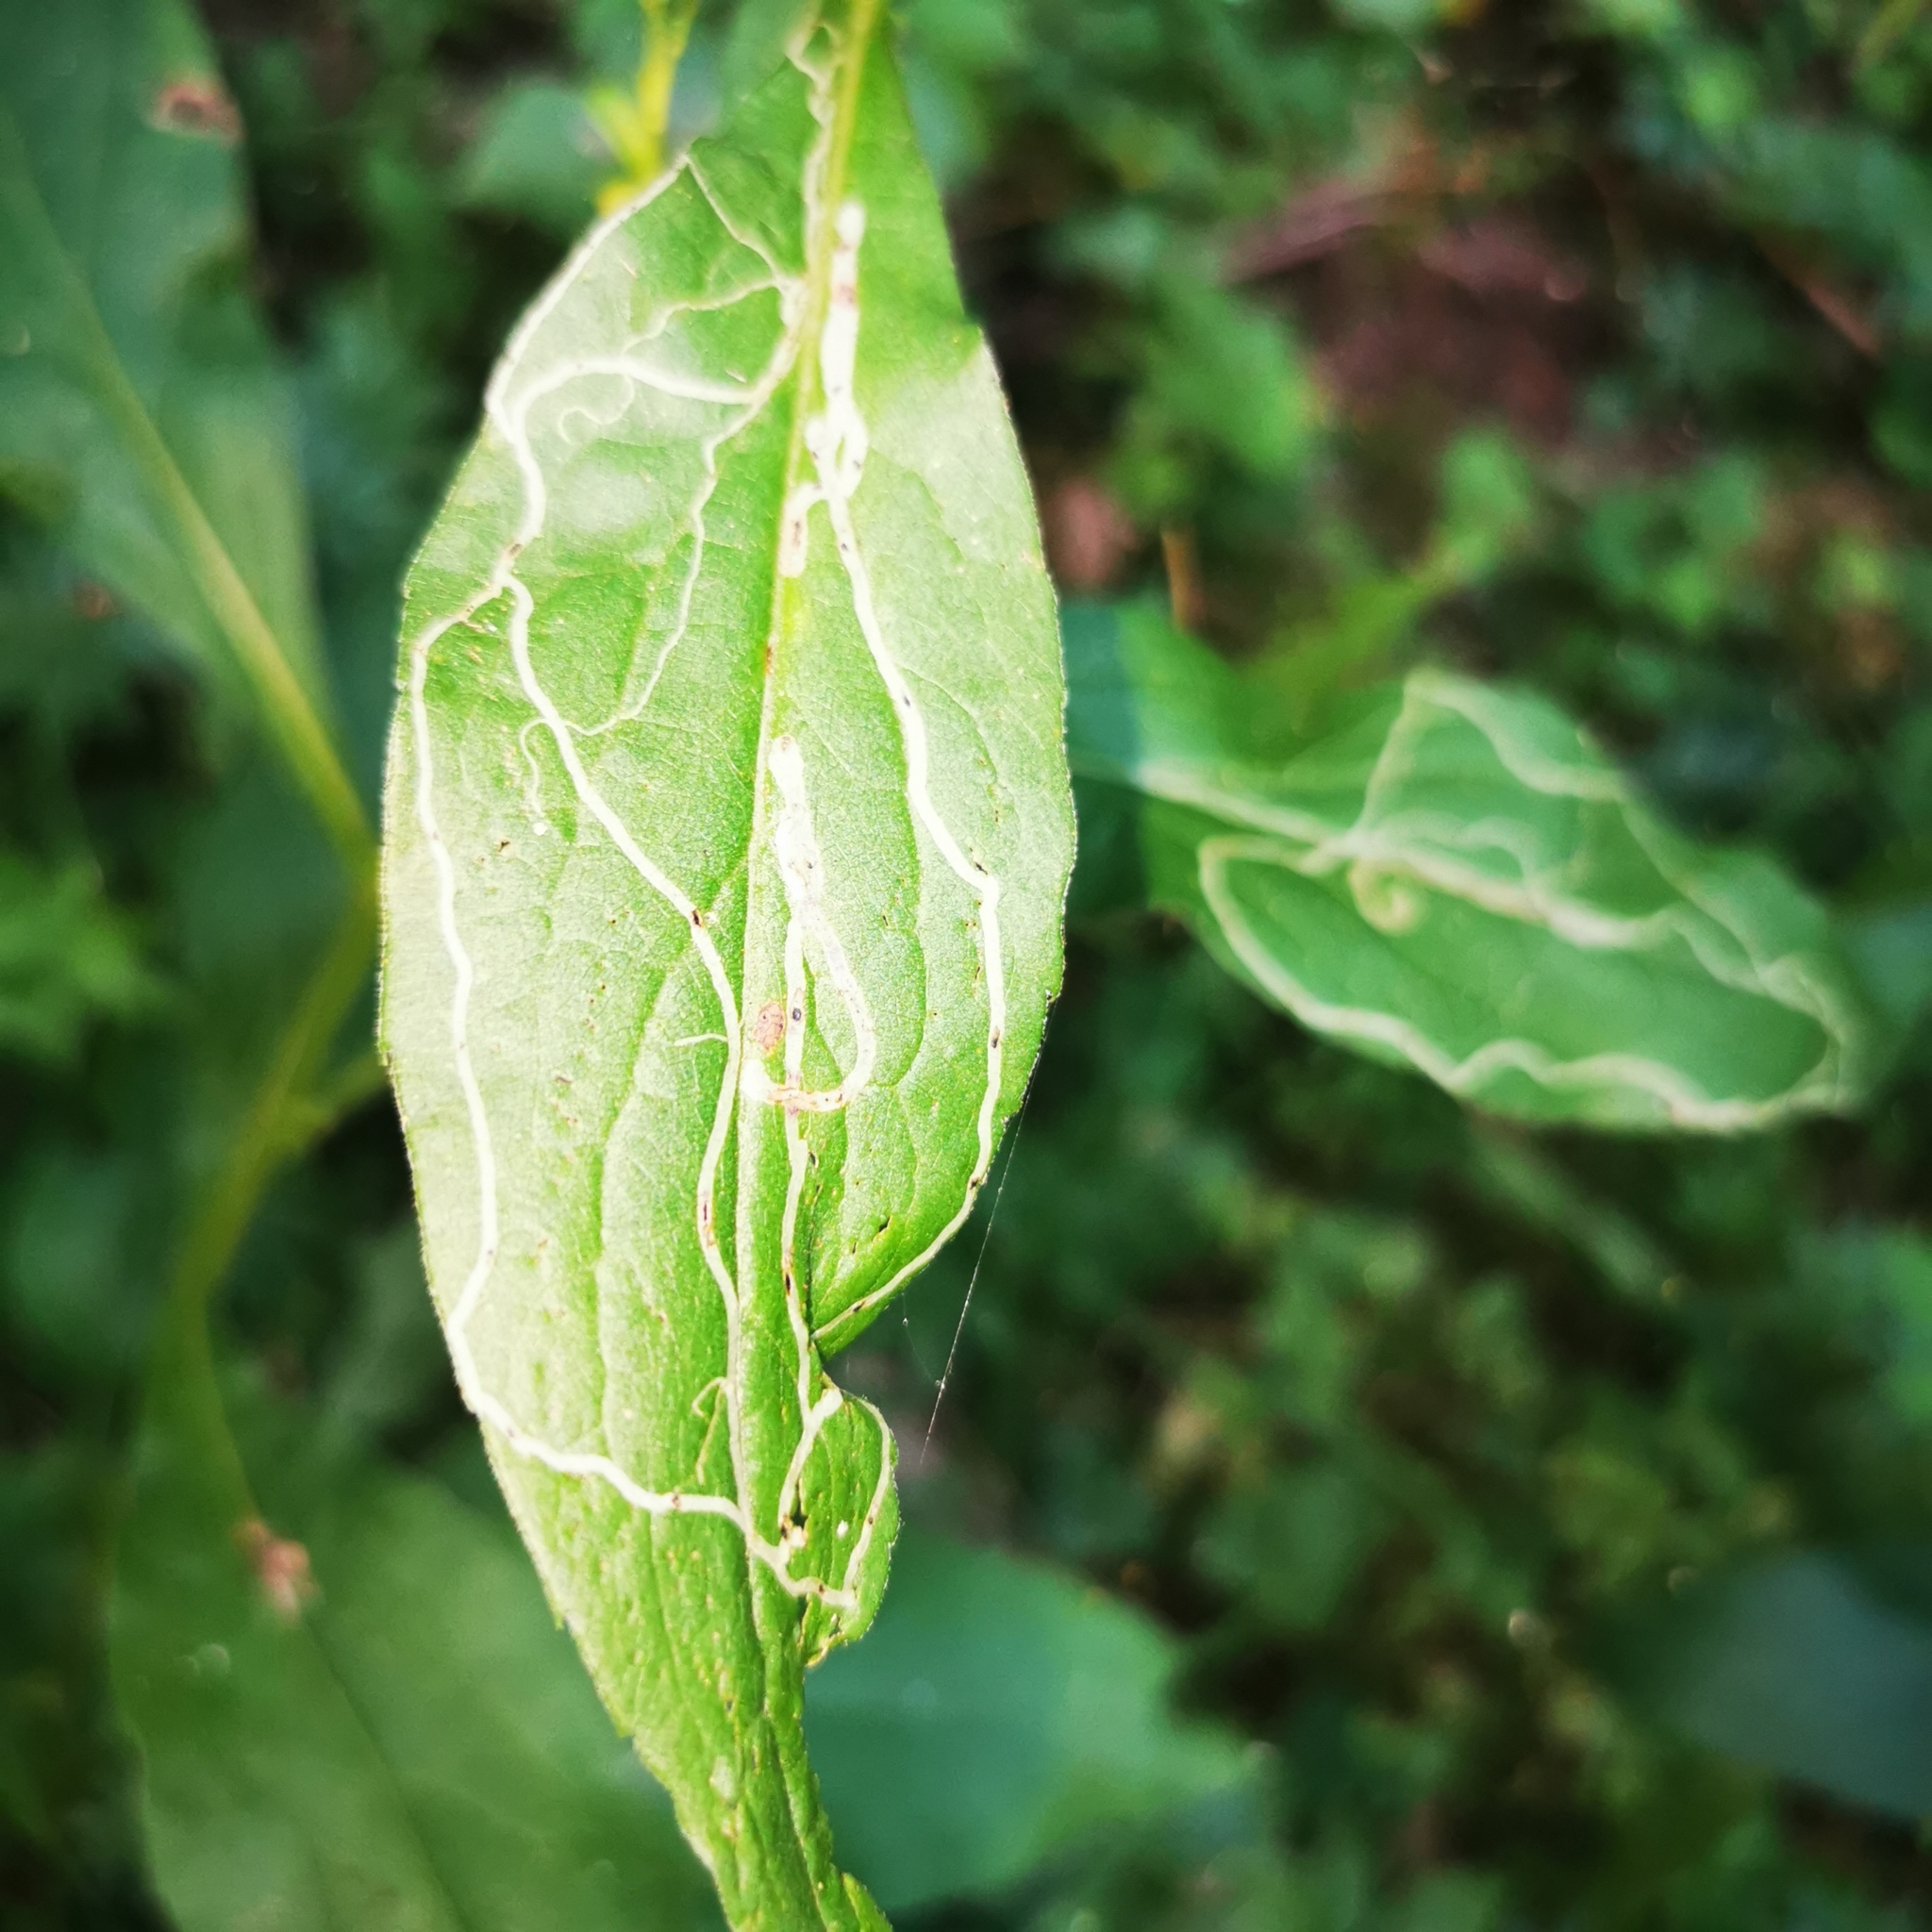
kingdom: Animalia
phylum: Arthropoda
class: Insecta
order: Diptera
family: Agromyzidae
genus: Ophiomyia
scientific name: Ophiomyia maura
